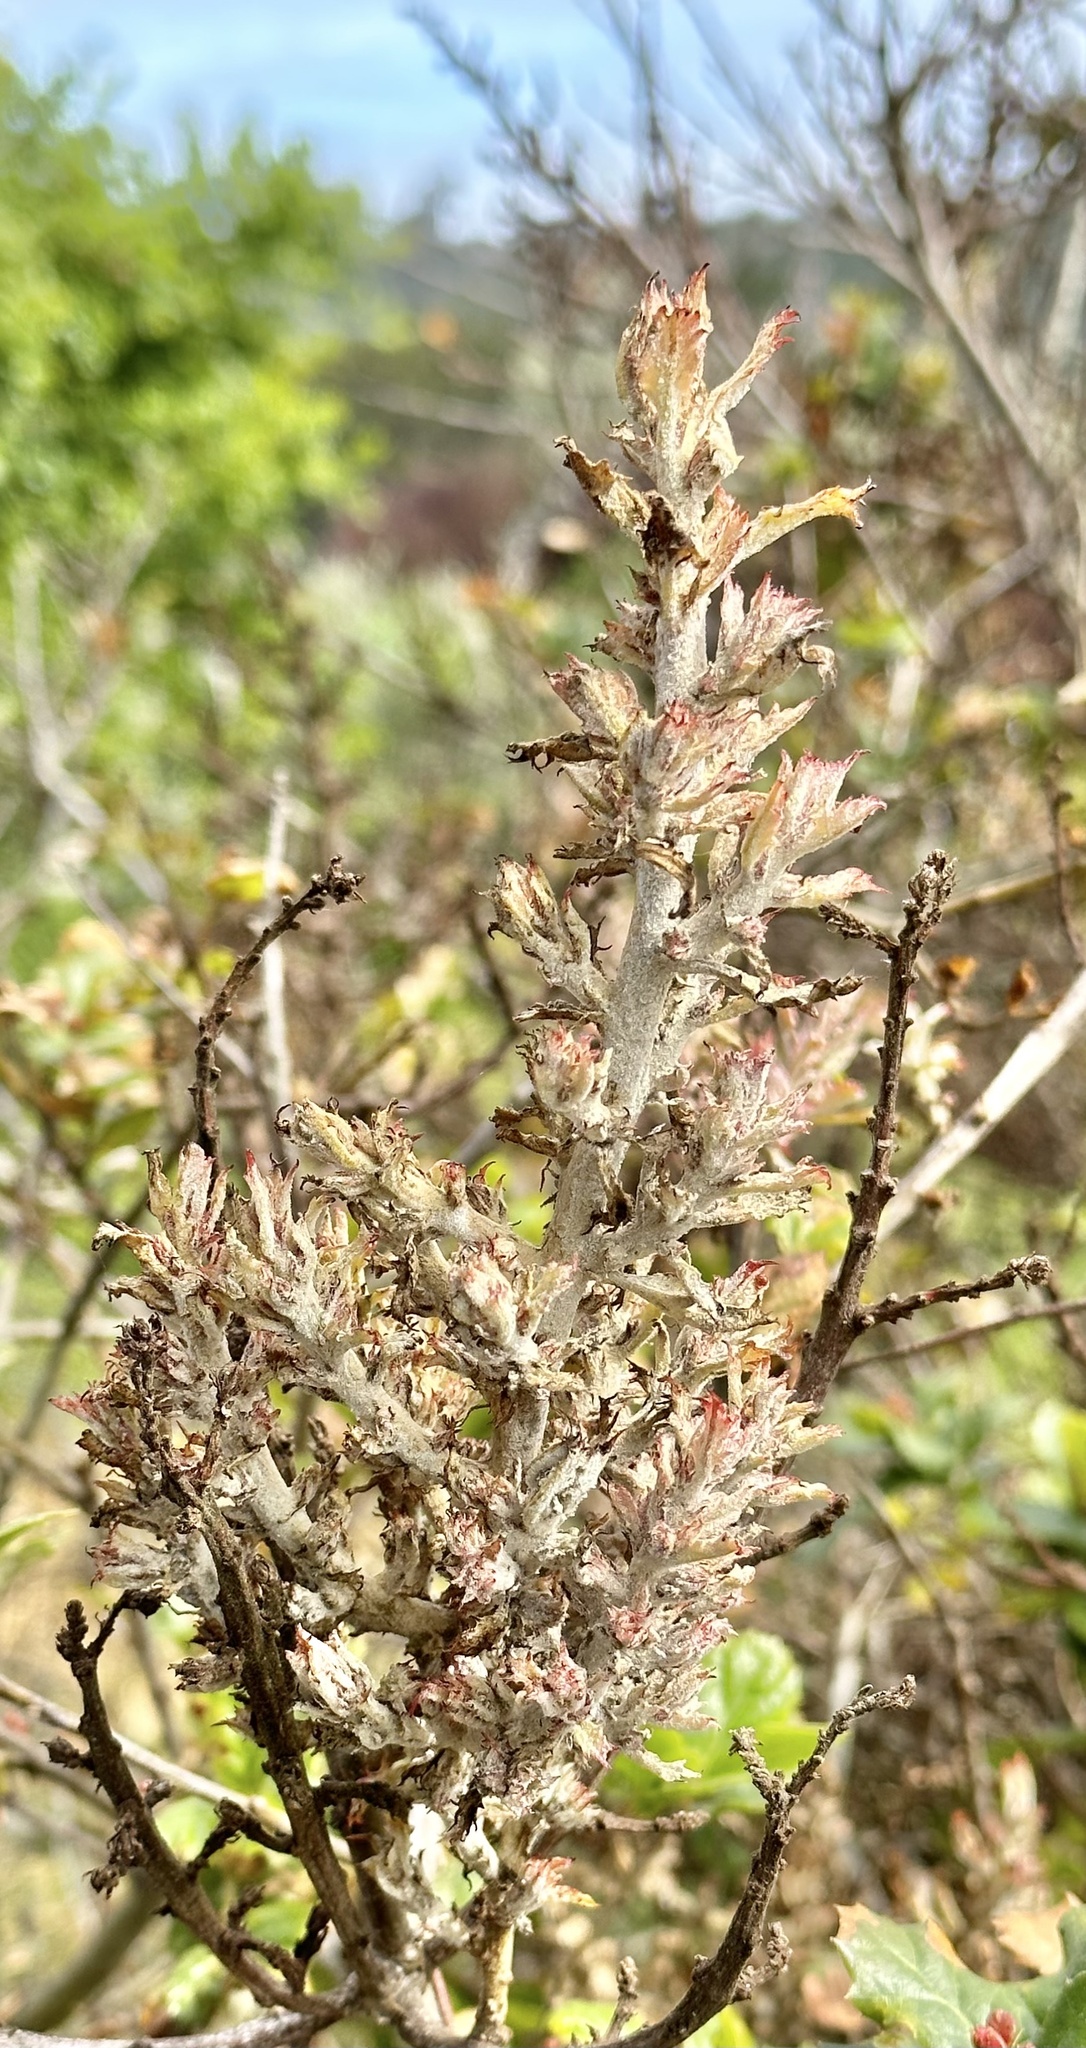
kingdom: Fungi
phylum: Ascomycota
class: Leotiomycetes
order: Helotiales
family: Erysiphaceae
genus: Cystotheca
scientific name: Cystotheca lanestris
